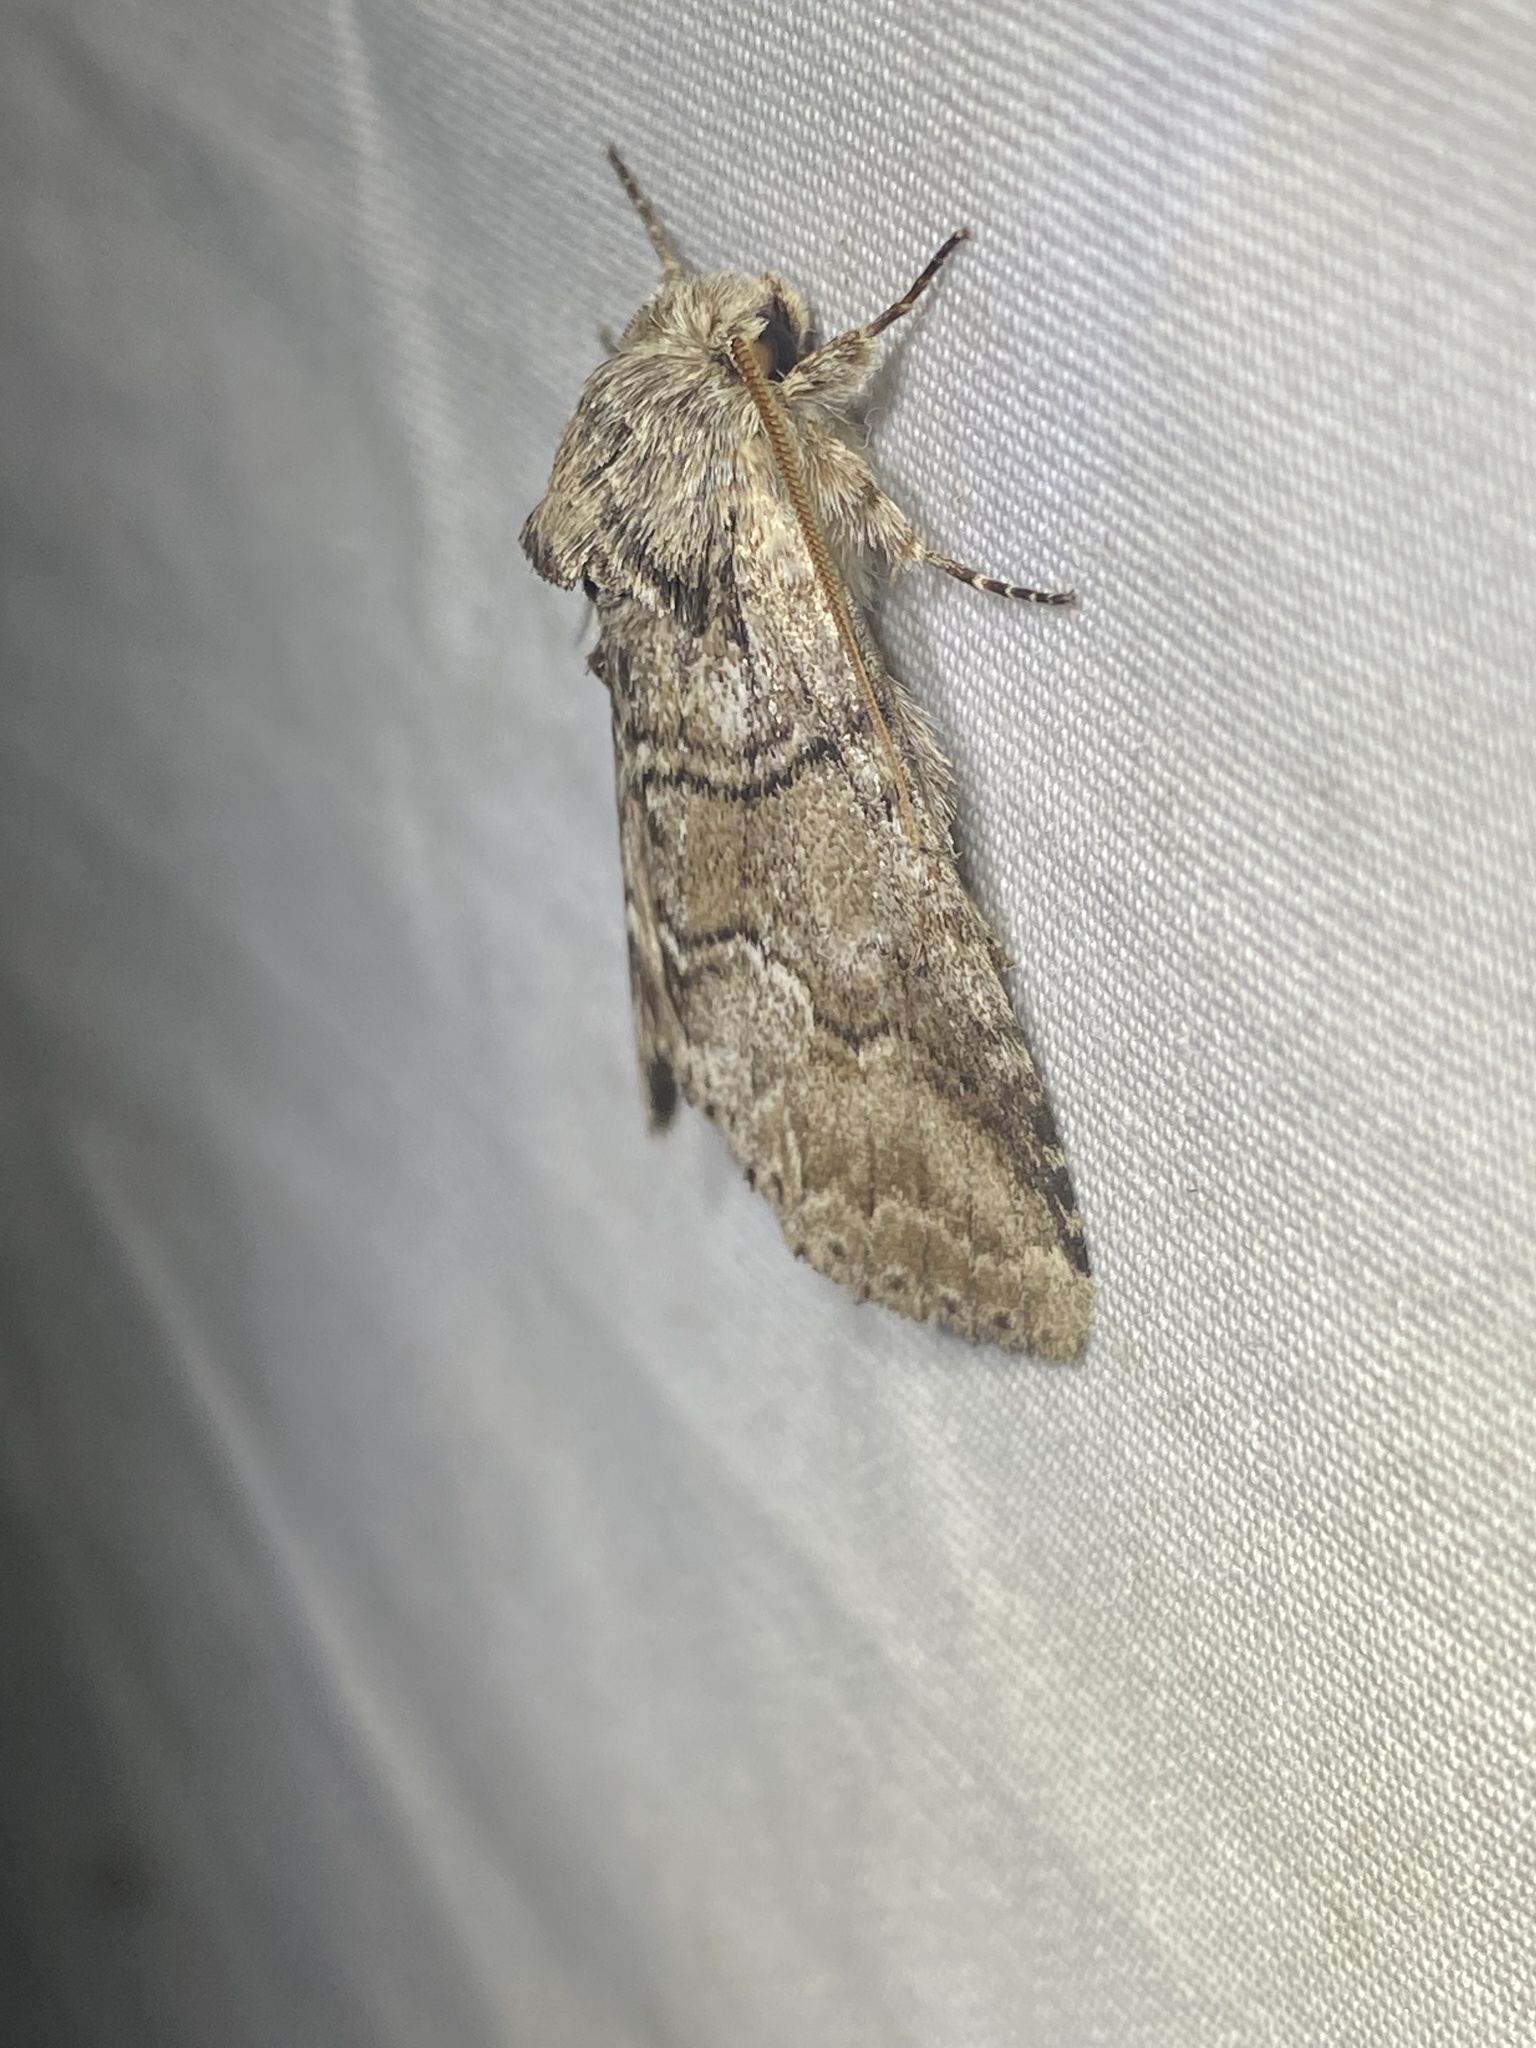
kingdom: Animalia
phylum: Arthropoda
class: Insecta
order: Lepidoptera
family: Notodontidae
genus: Lochmaeus
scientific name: Lochmaeus bilineata
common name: Double-lined prominent
